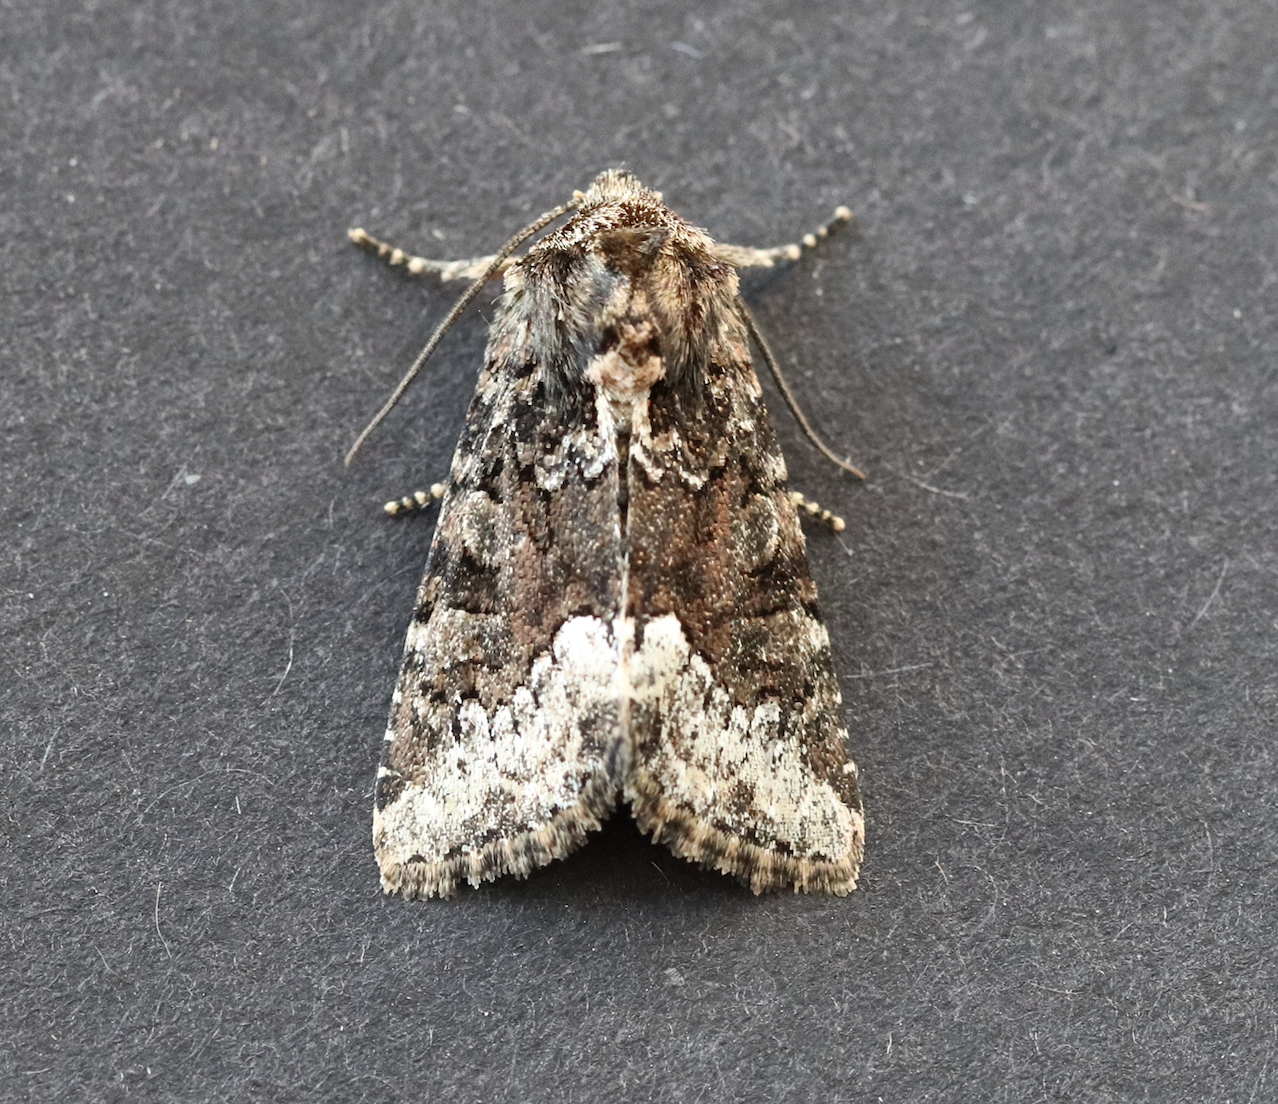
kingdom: Animalia
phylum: Arthropoda
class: Insecta
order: Lepidoptera
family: Noctuidae
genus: Oligia
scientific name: Oligia strigilis
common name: Marbled minor
